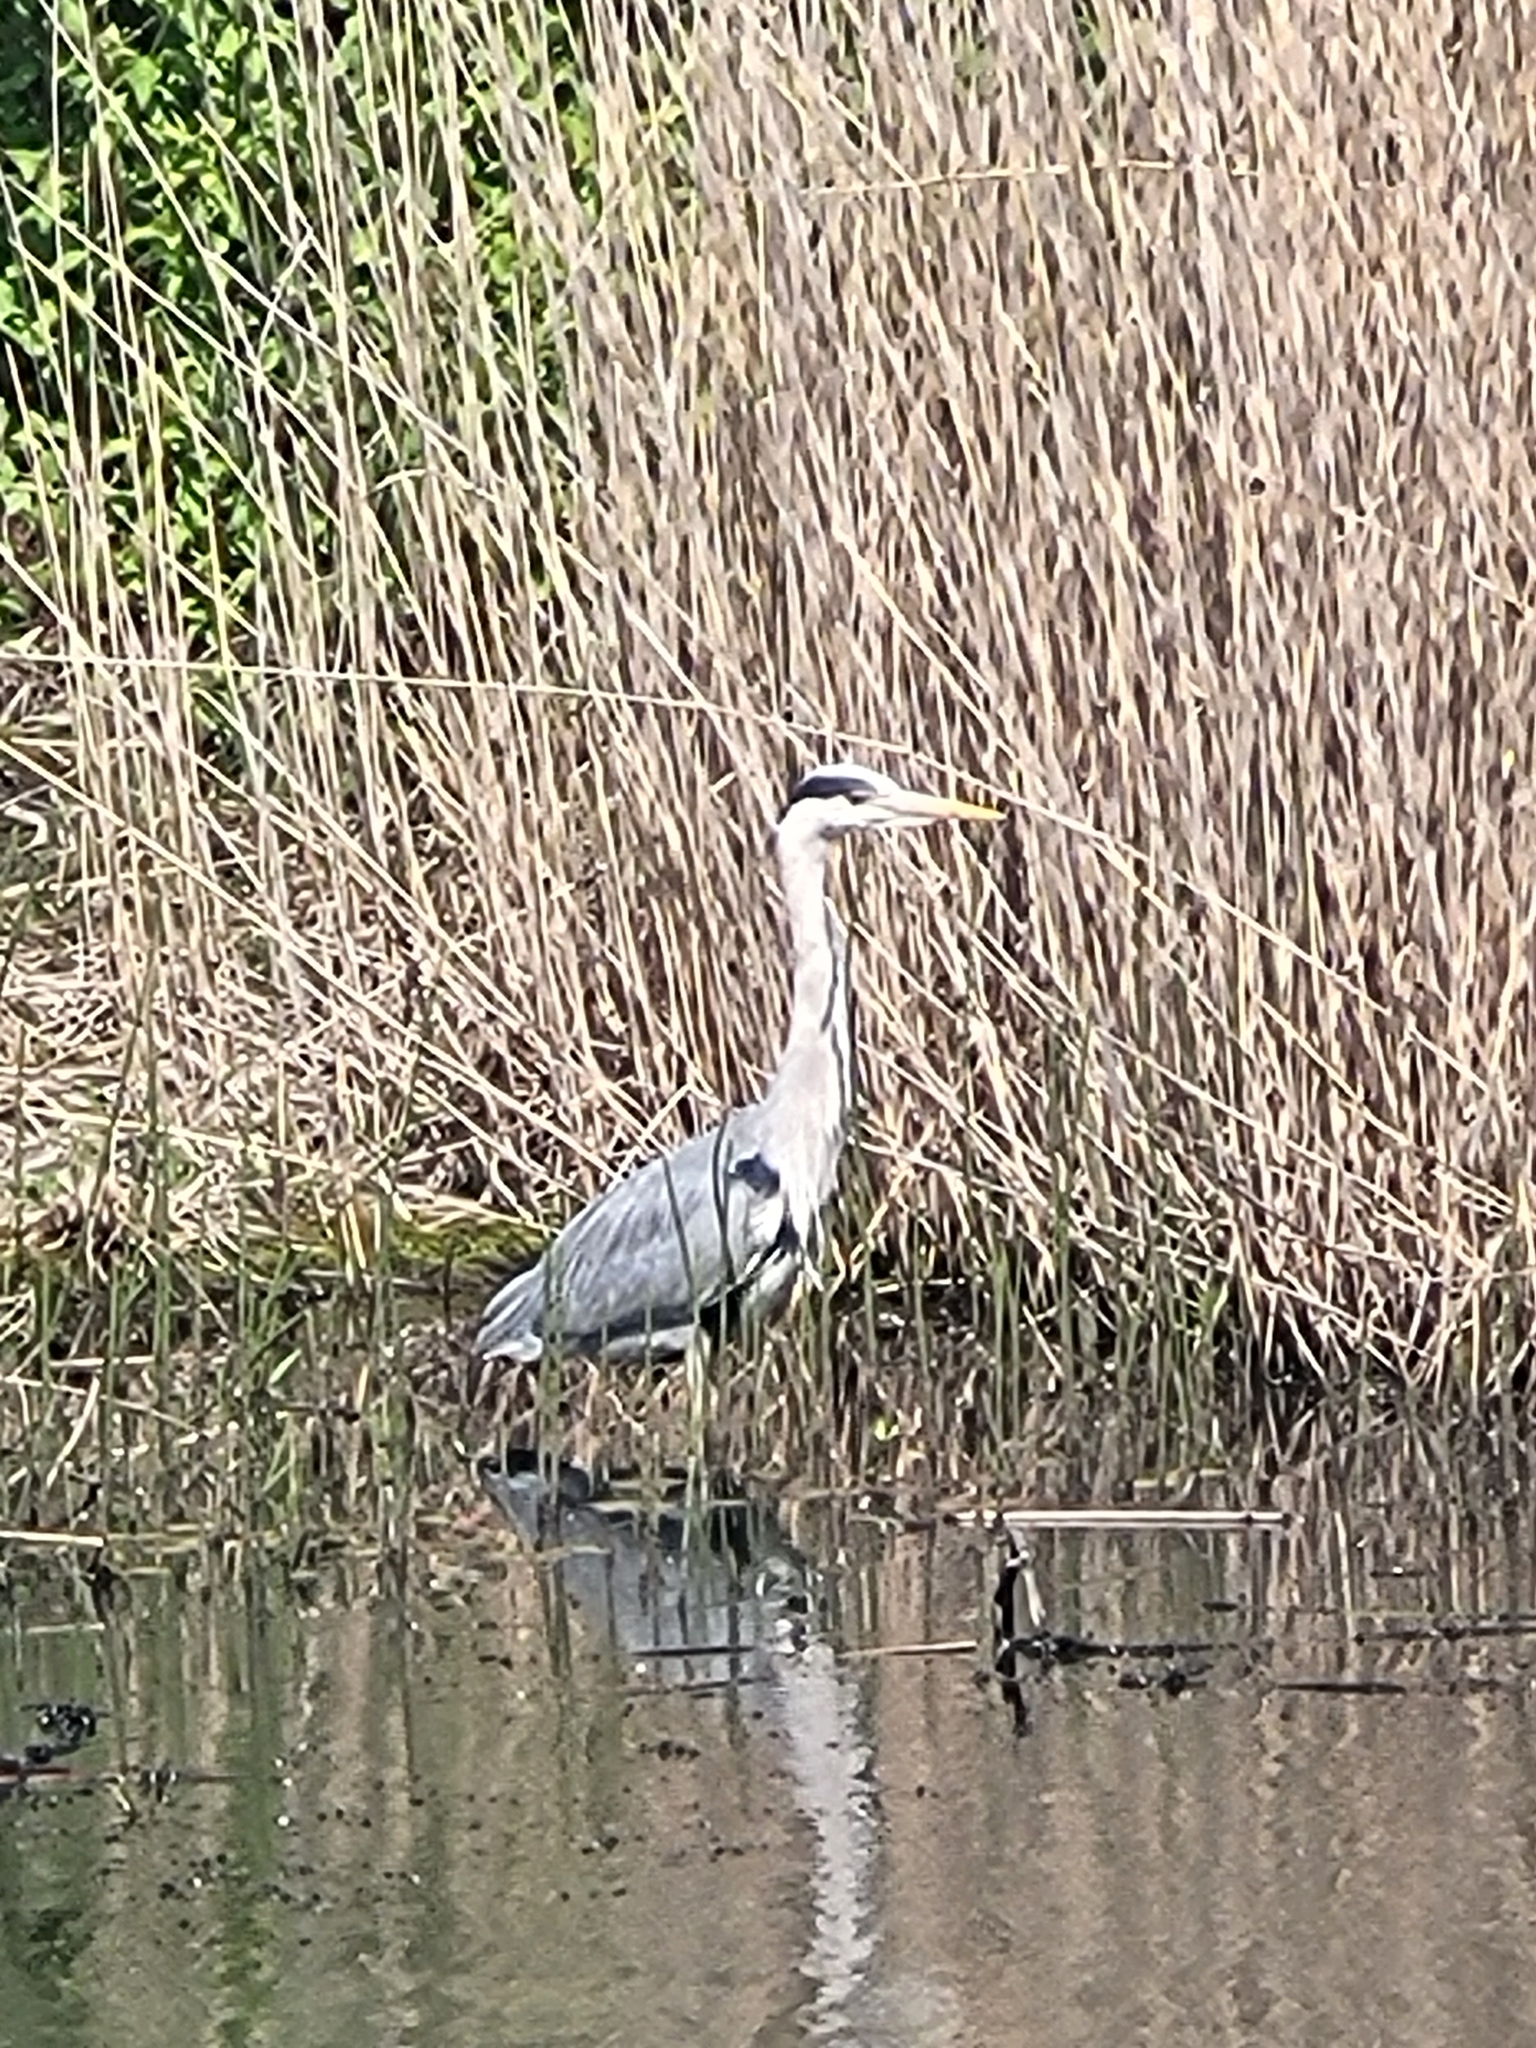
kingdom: Animalia
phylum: Chordata
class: Aves
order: Pelecaniformes
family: Ardeidae
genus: Ardea
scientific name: Ardea cinerea
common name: Grey heron
